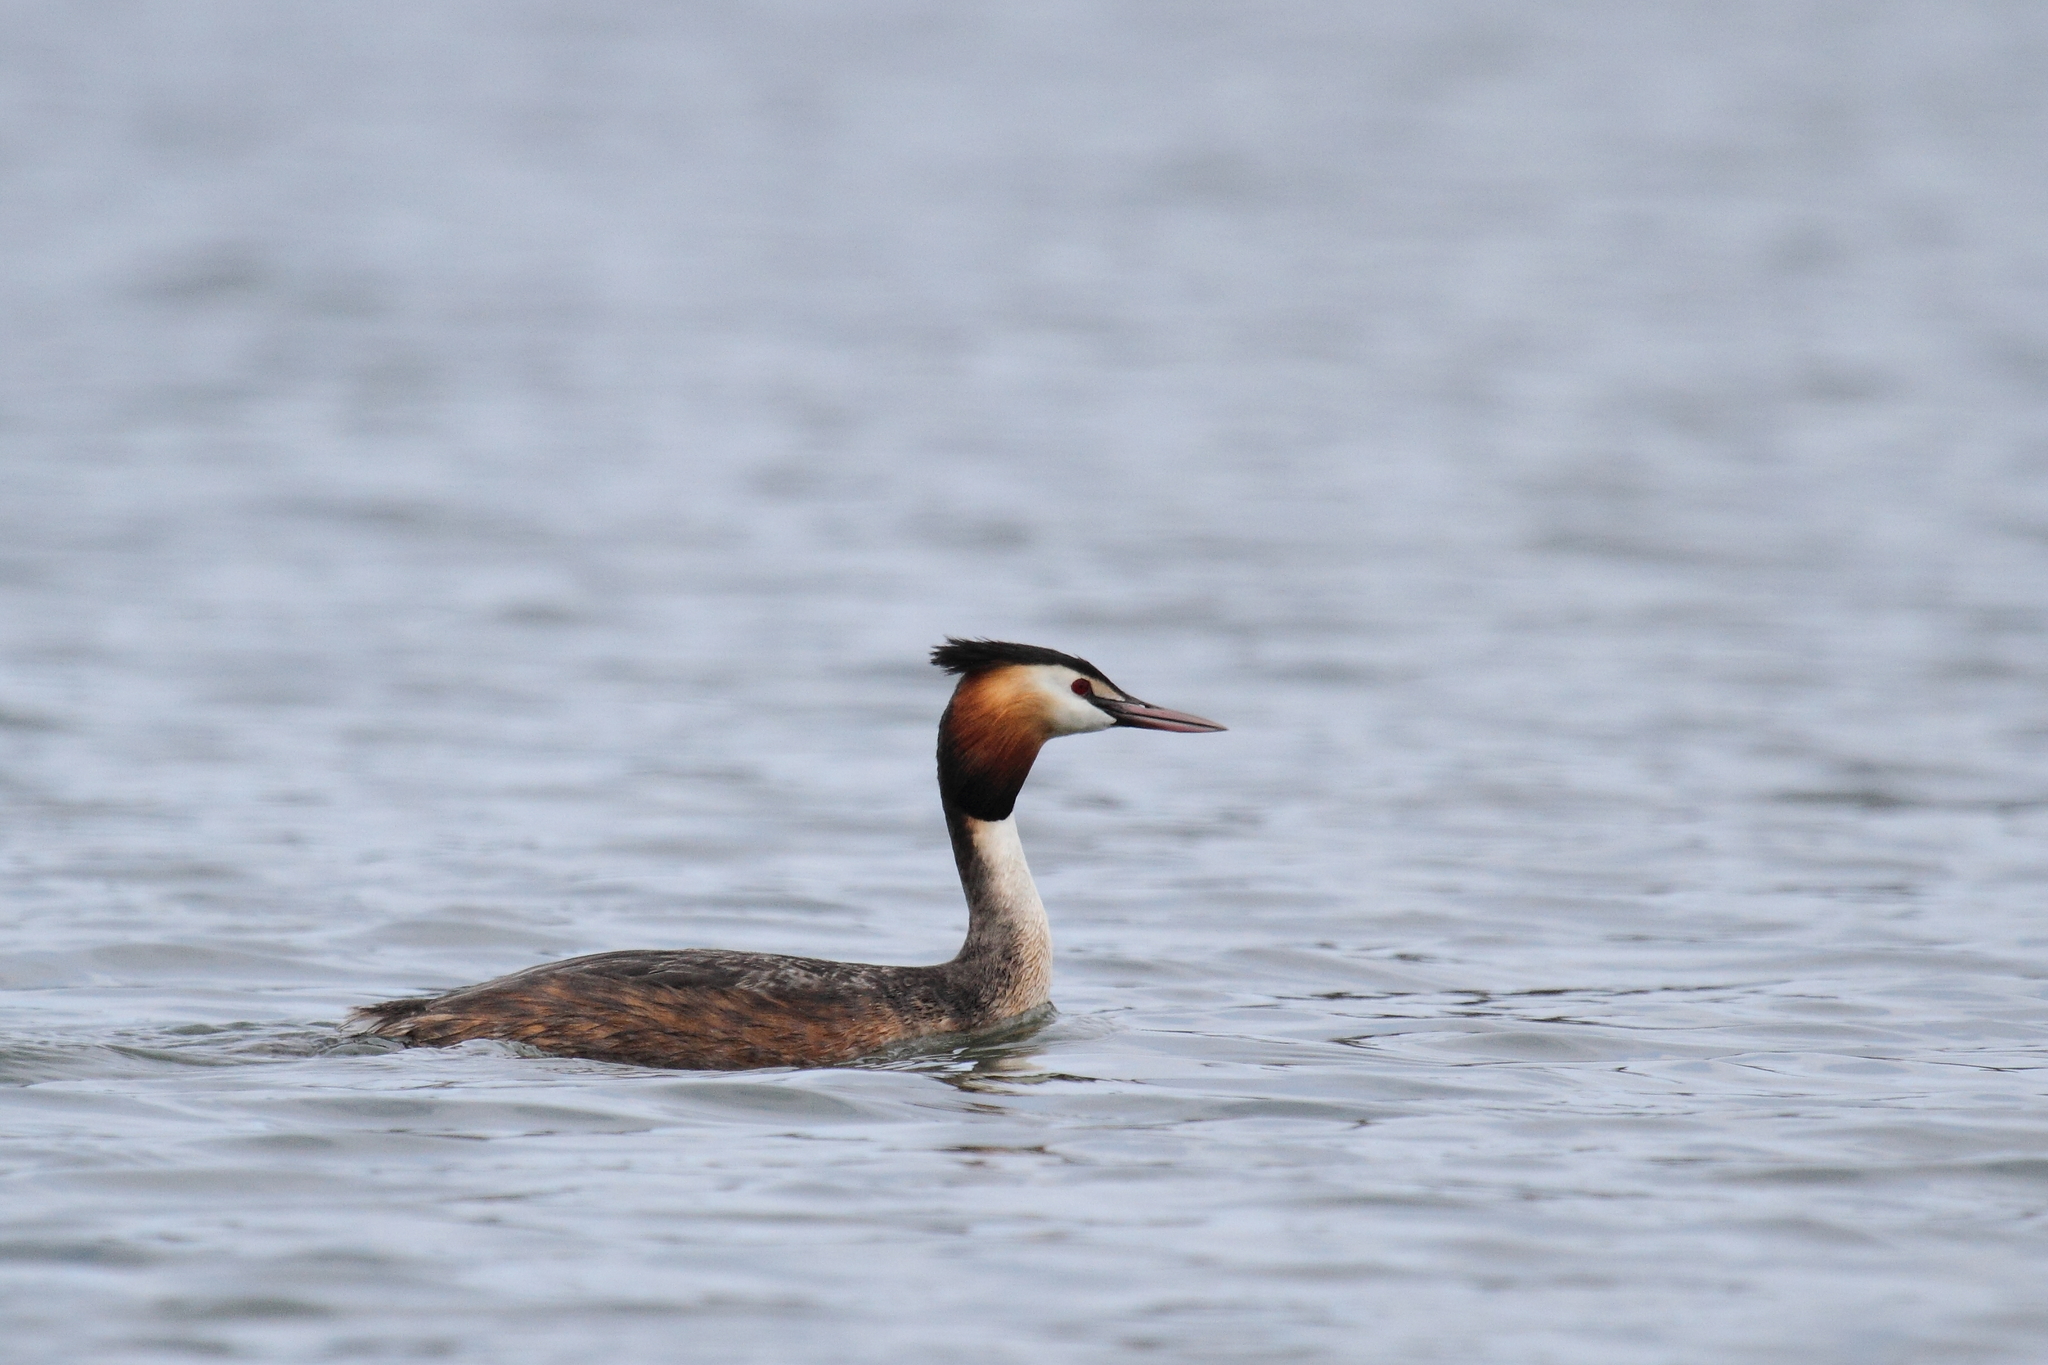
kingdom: Animalia
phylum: Chordata
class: Aves
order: Podicipediformes
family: Podicipedidae
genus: Podiceps
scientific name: Podiceps cristatus
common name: Great crested grebe
